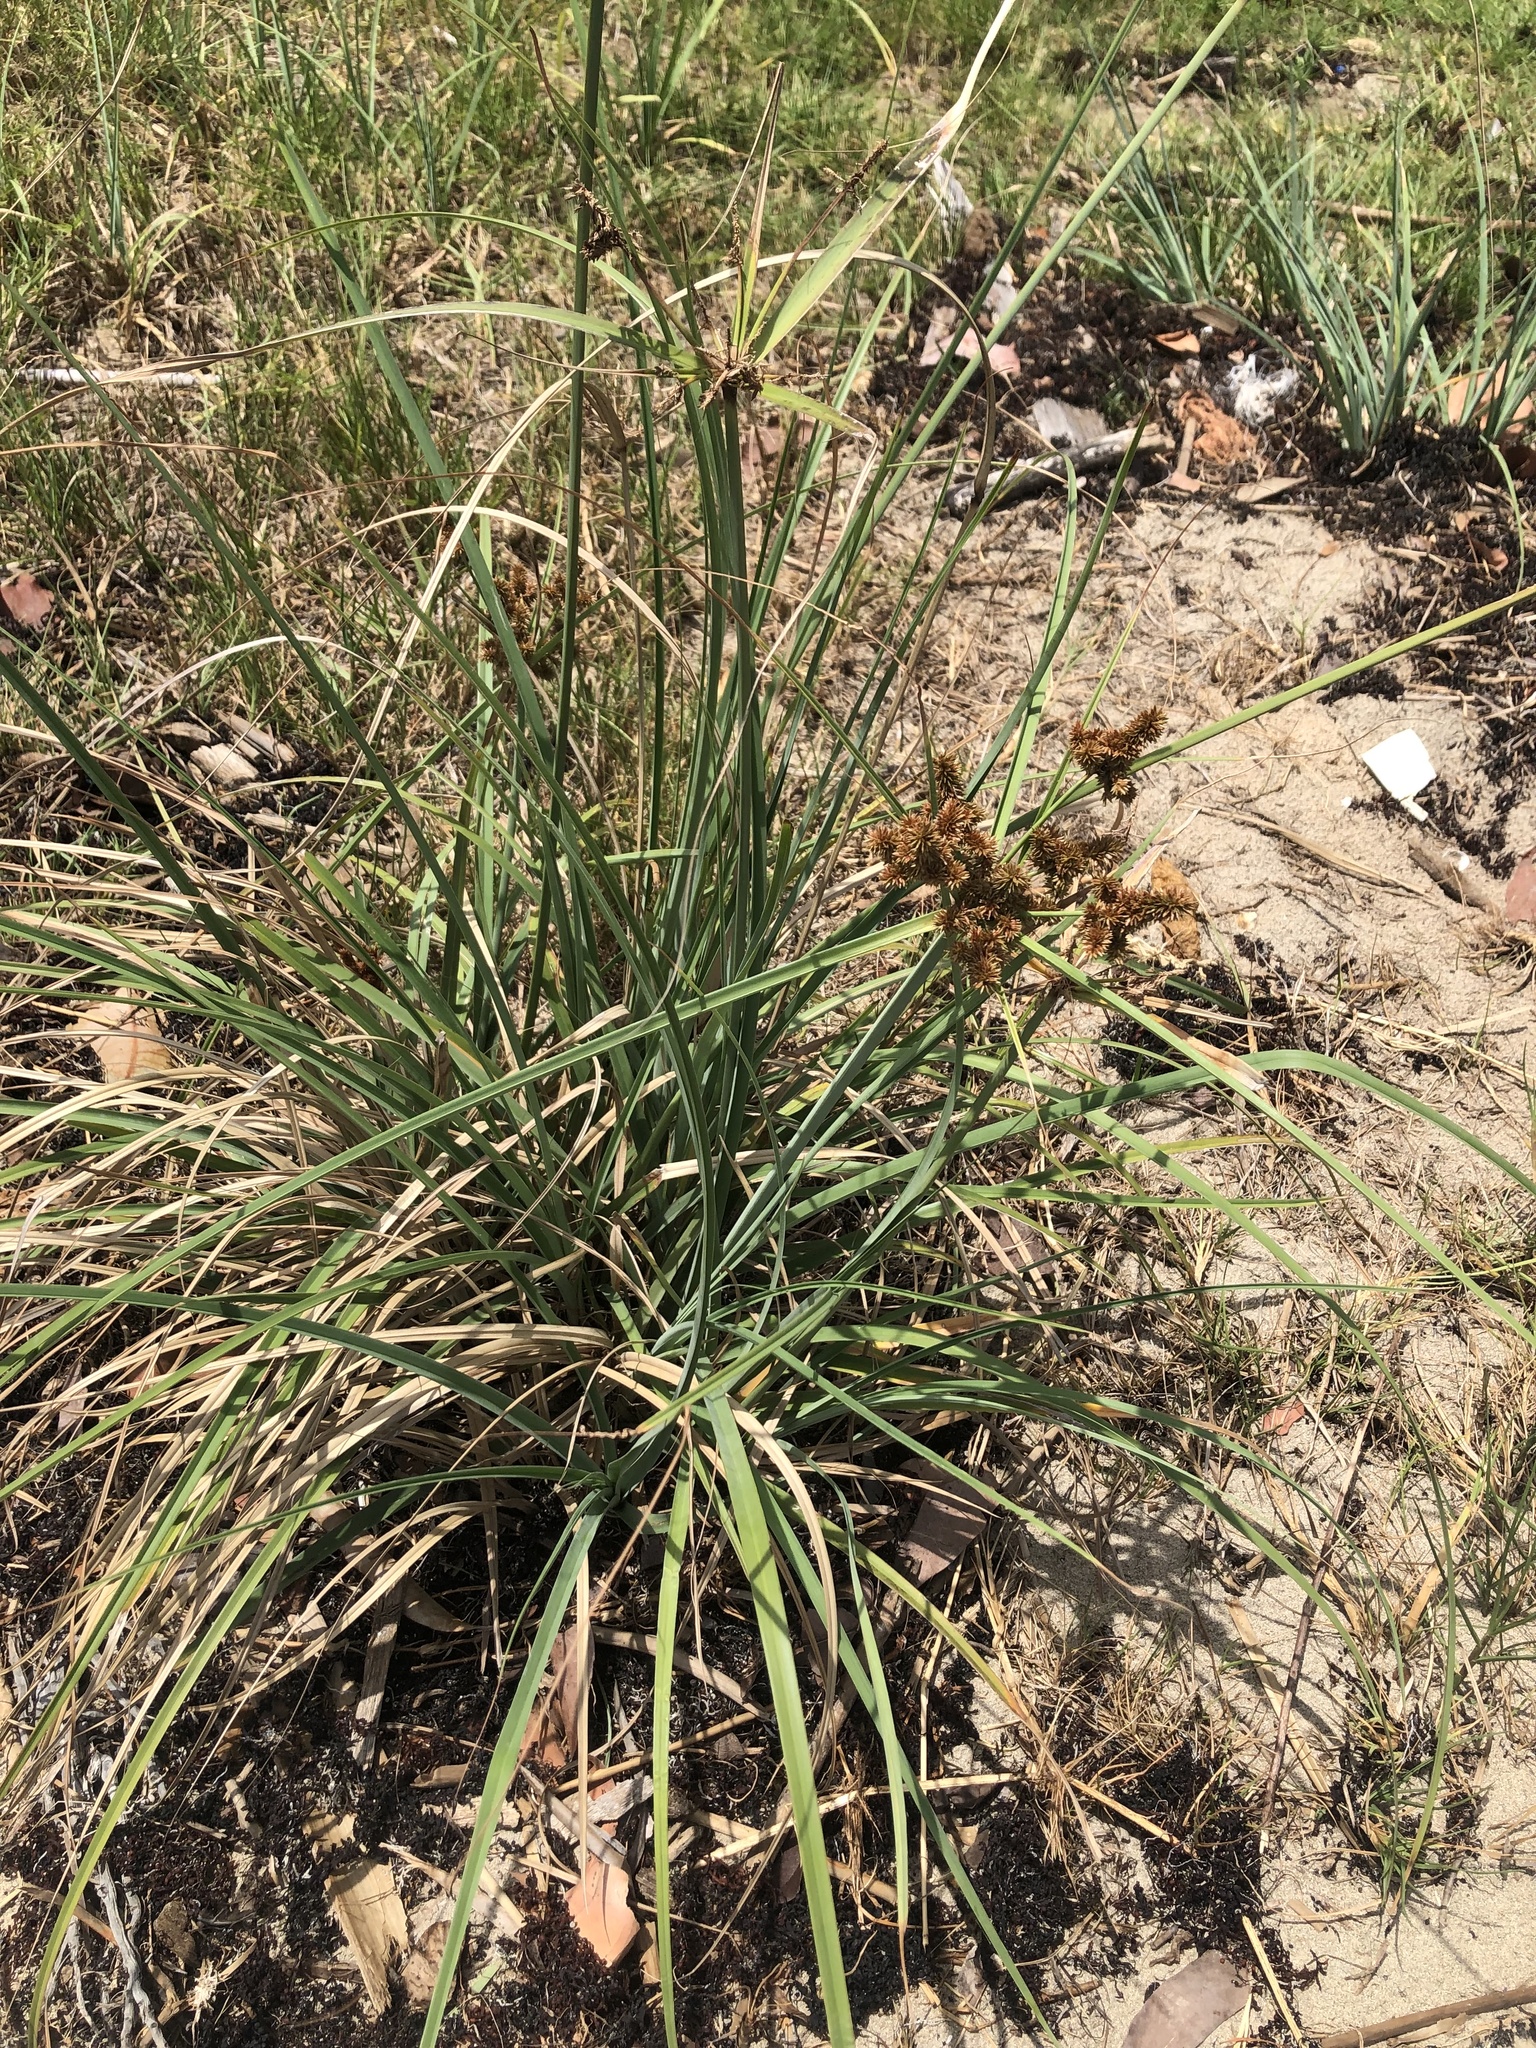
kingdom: Plantae
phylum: Tracheophyta
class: Liliopsida
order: Poales
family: Cyperaceae
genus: Cyperus
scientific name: Cyperus ligularis
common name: Swamp flat sedge
